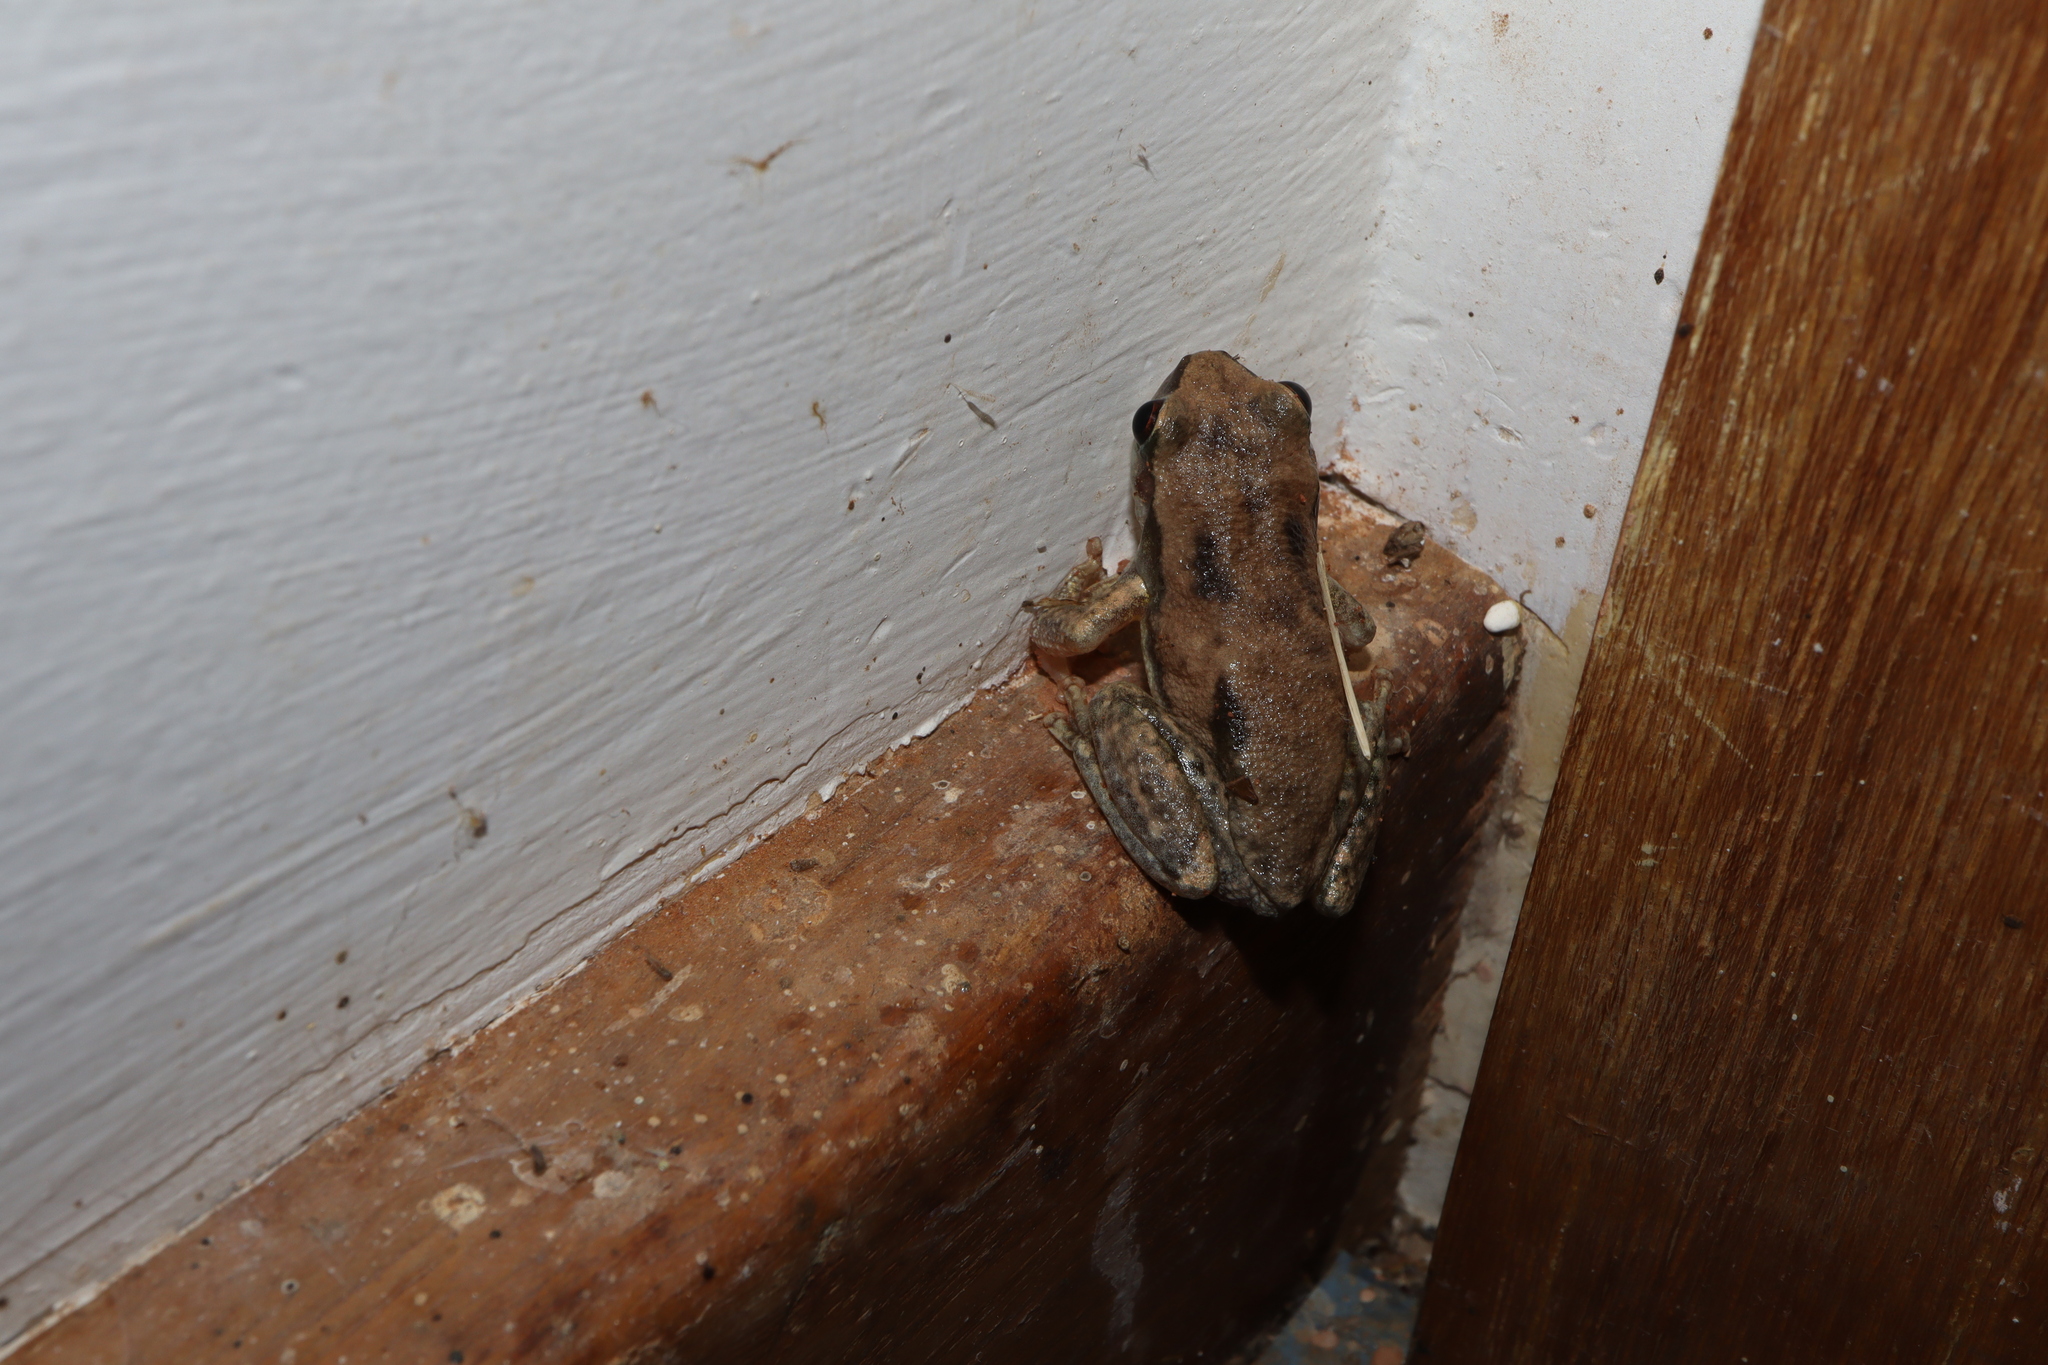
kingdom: Animalia
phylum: Chordata
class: Amphibia
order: Anura
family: Pelodryadidae
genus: Litoria
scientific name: Litoria rubella
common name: Desert tree frog
